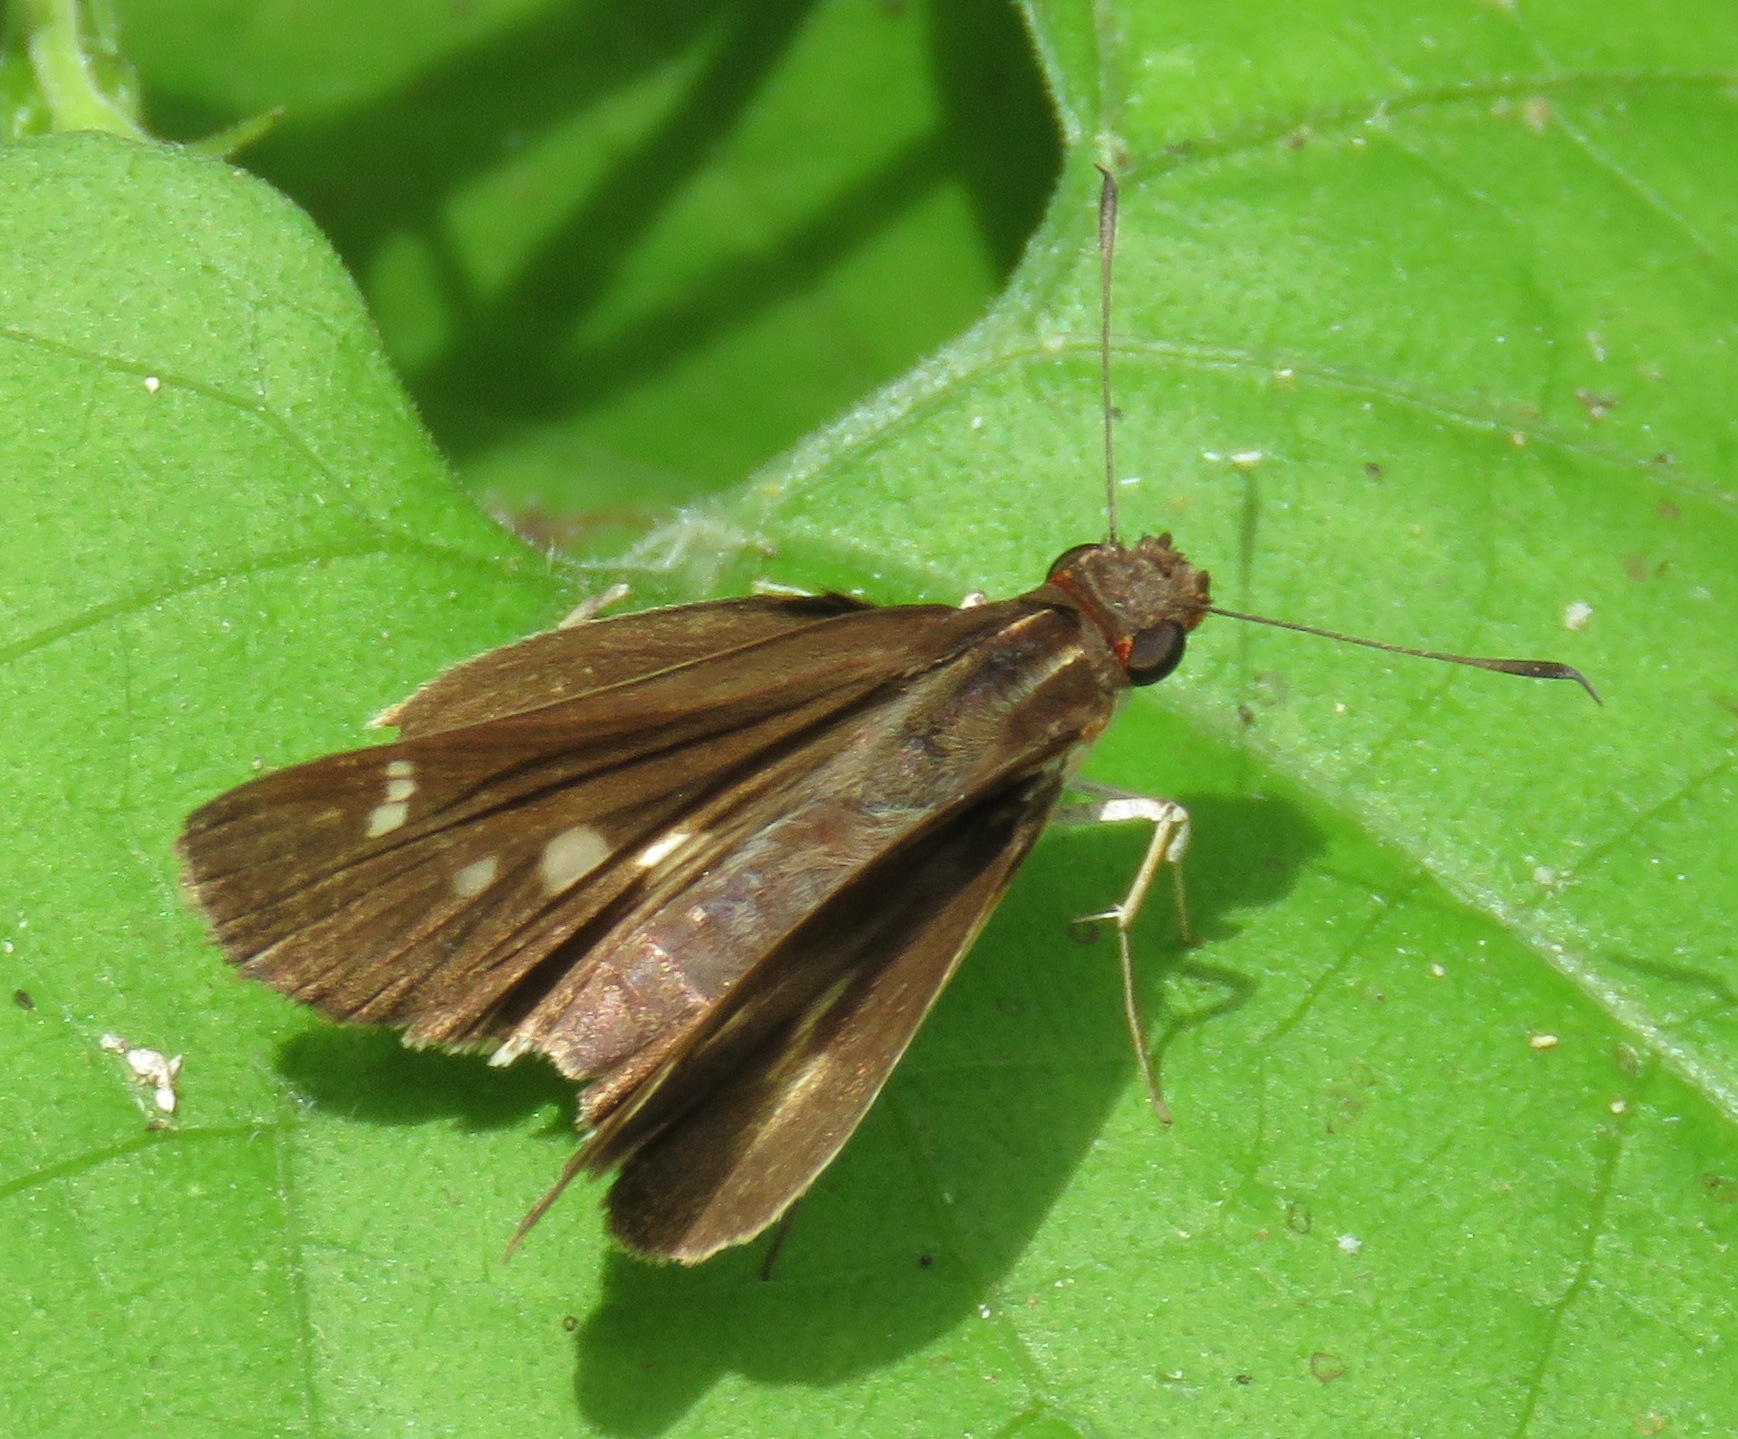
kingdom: Animalia
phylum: Arthropoda
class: Insecta
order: Lepidoptera
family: Hesperiidae
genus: Troyus
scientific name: Troyus fantasos
